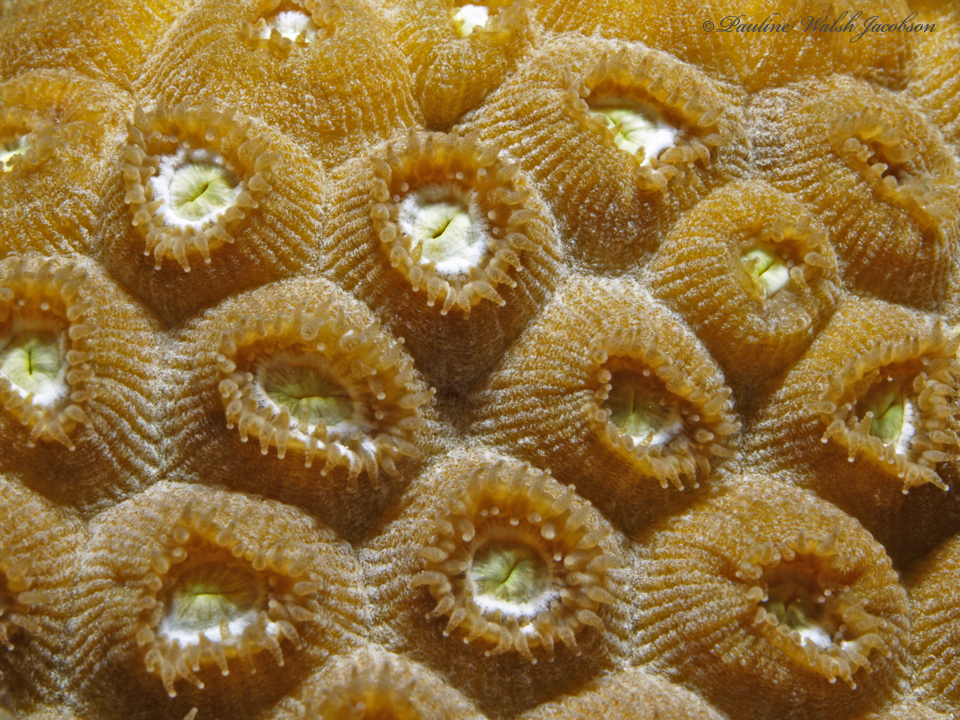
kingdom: Animalia
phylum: Cnidaria
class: Anthozoa
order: Scleractinia
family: Montastraeidae
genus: Montastraea
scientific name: Montastraea cavernosa
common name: Great star coral
